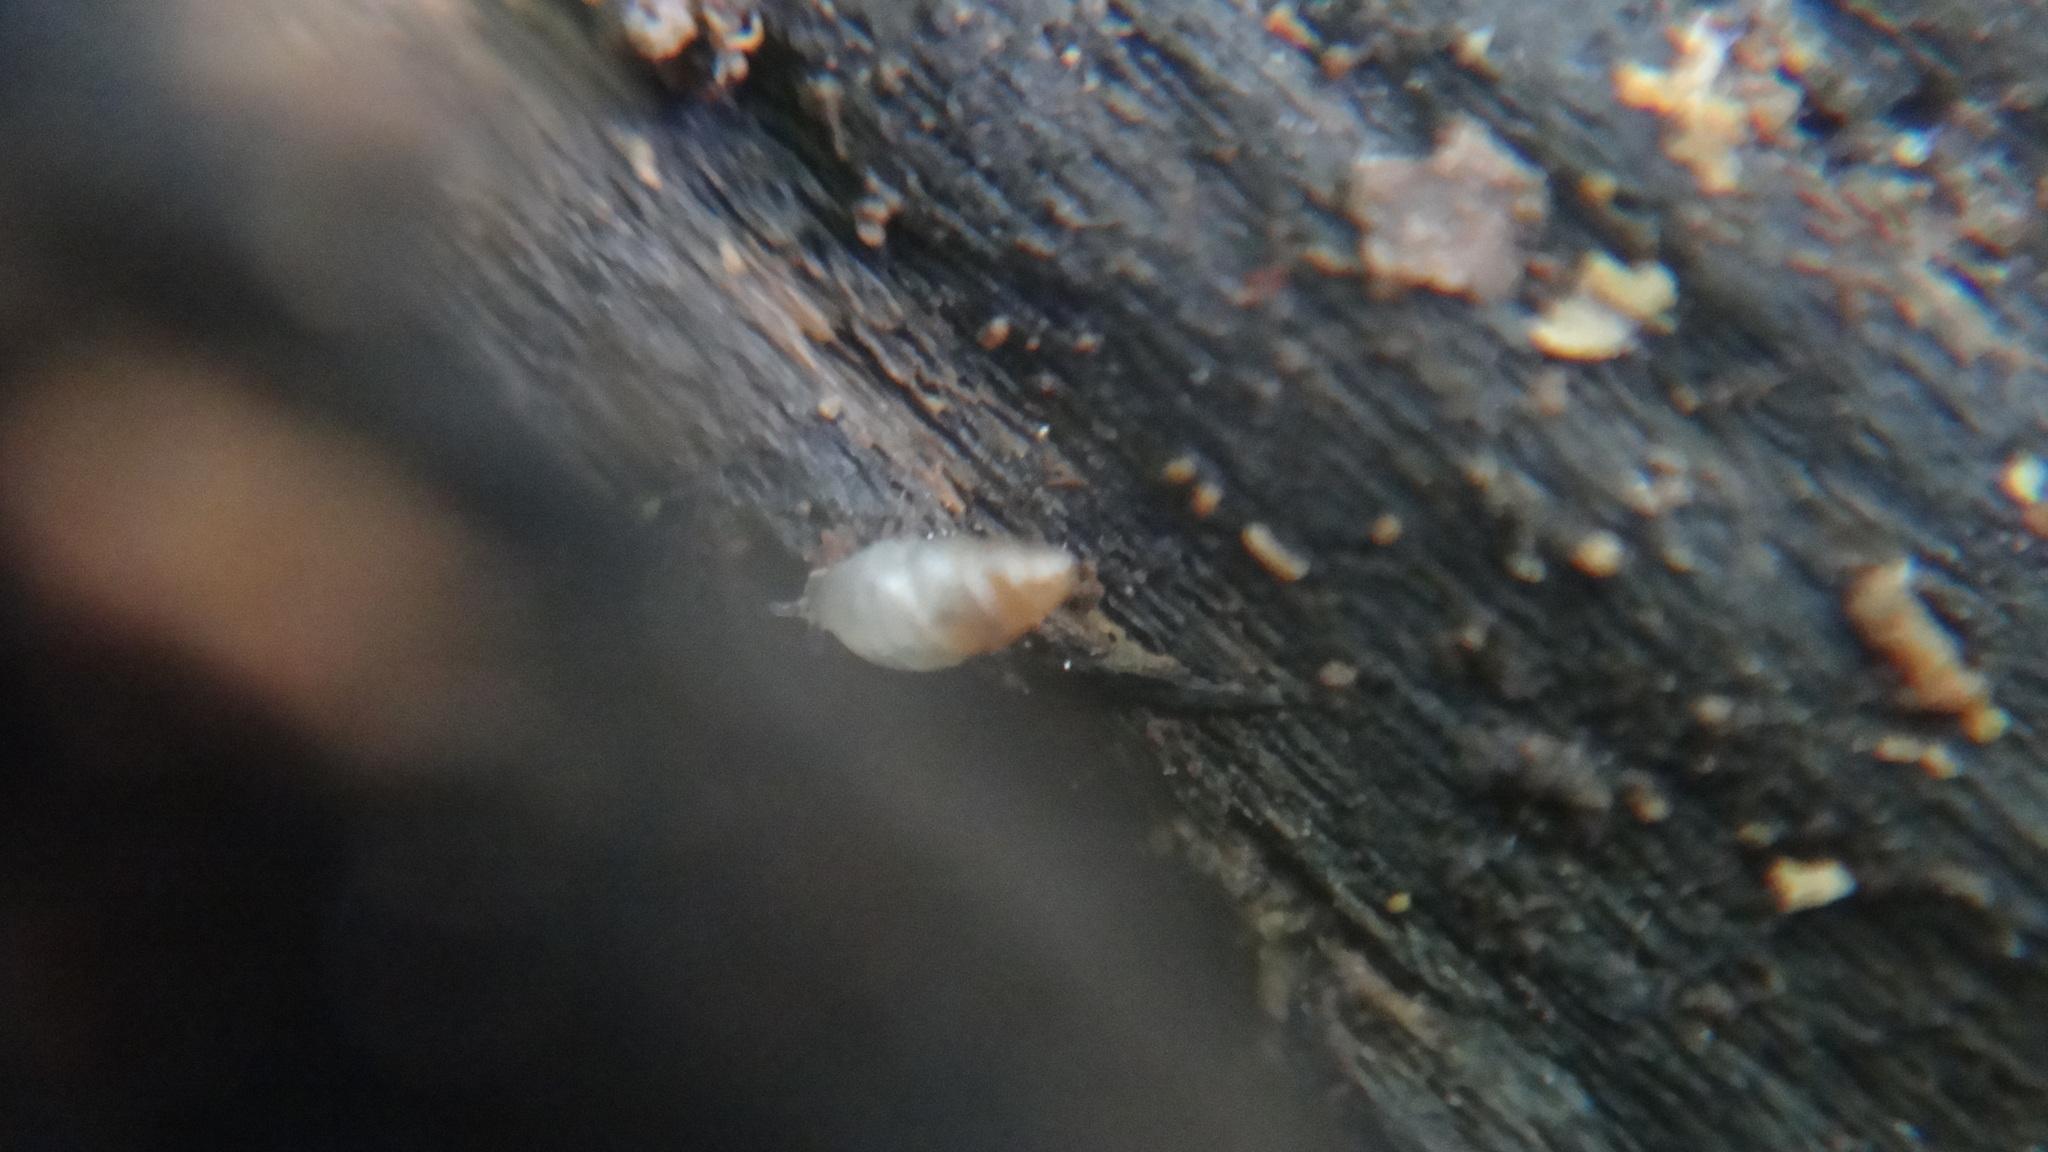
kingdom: Animalia
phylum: Mollusca
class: Gastropoda
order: Ellobiida
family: Ellobiidae
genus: Carychium
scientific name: Carychium tridentatum
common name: Long-toothed herald snail
